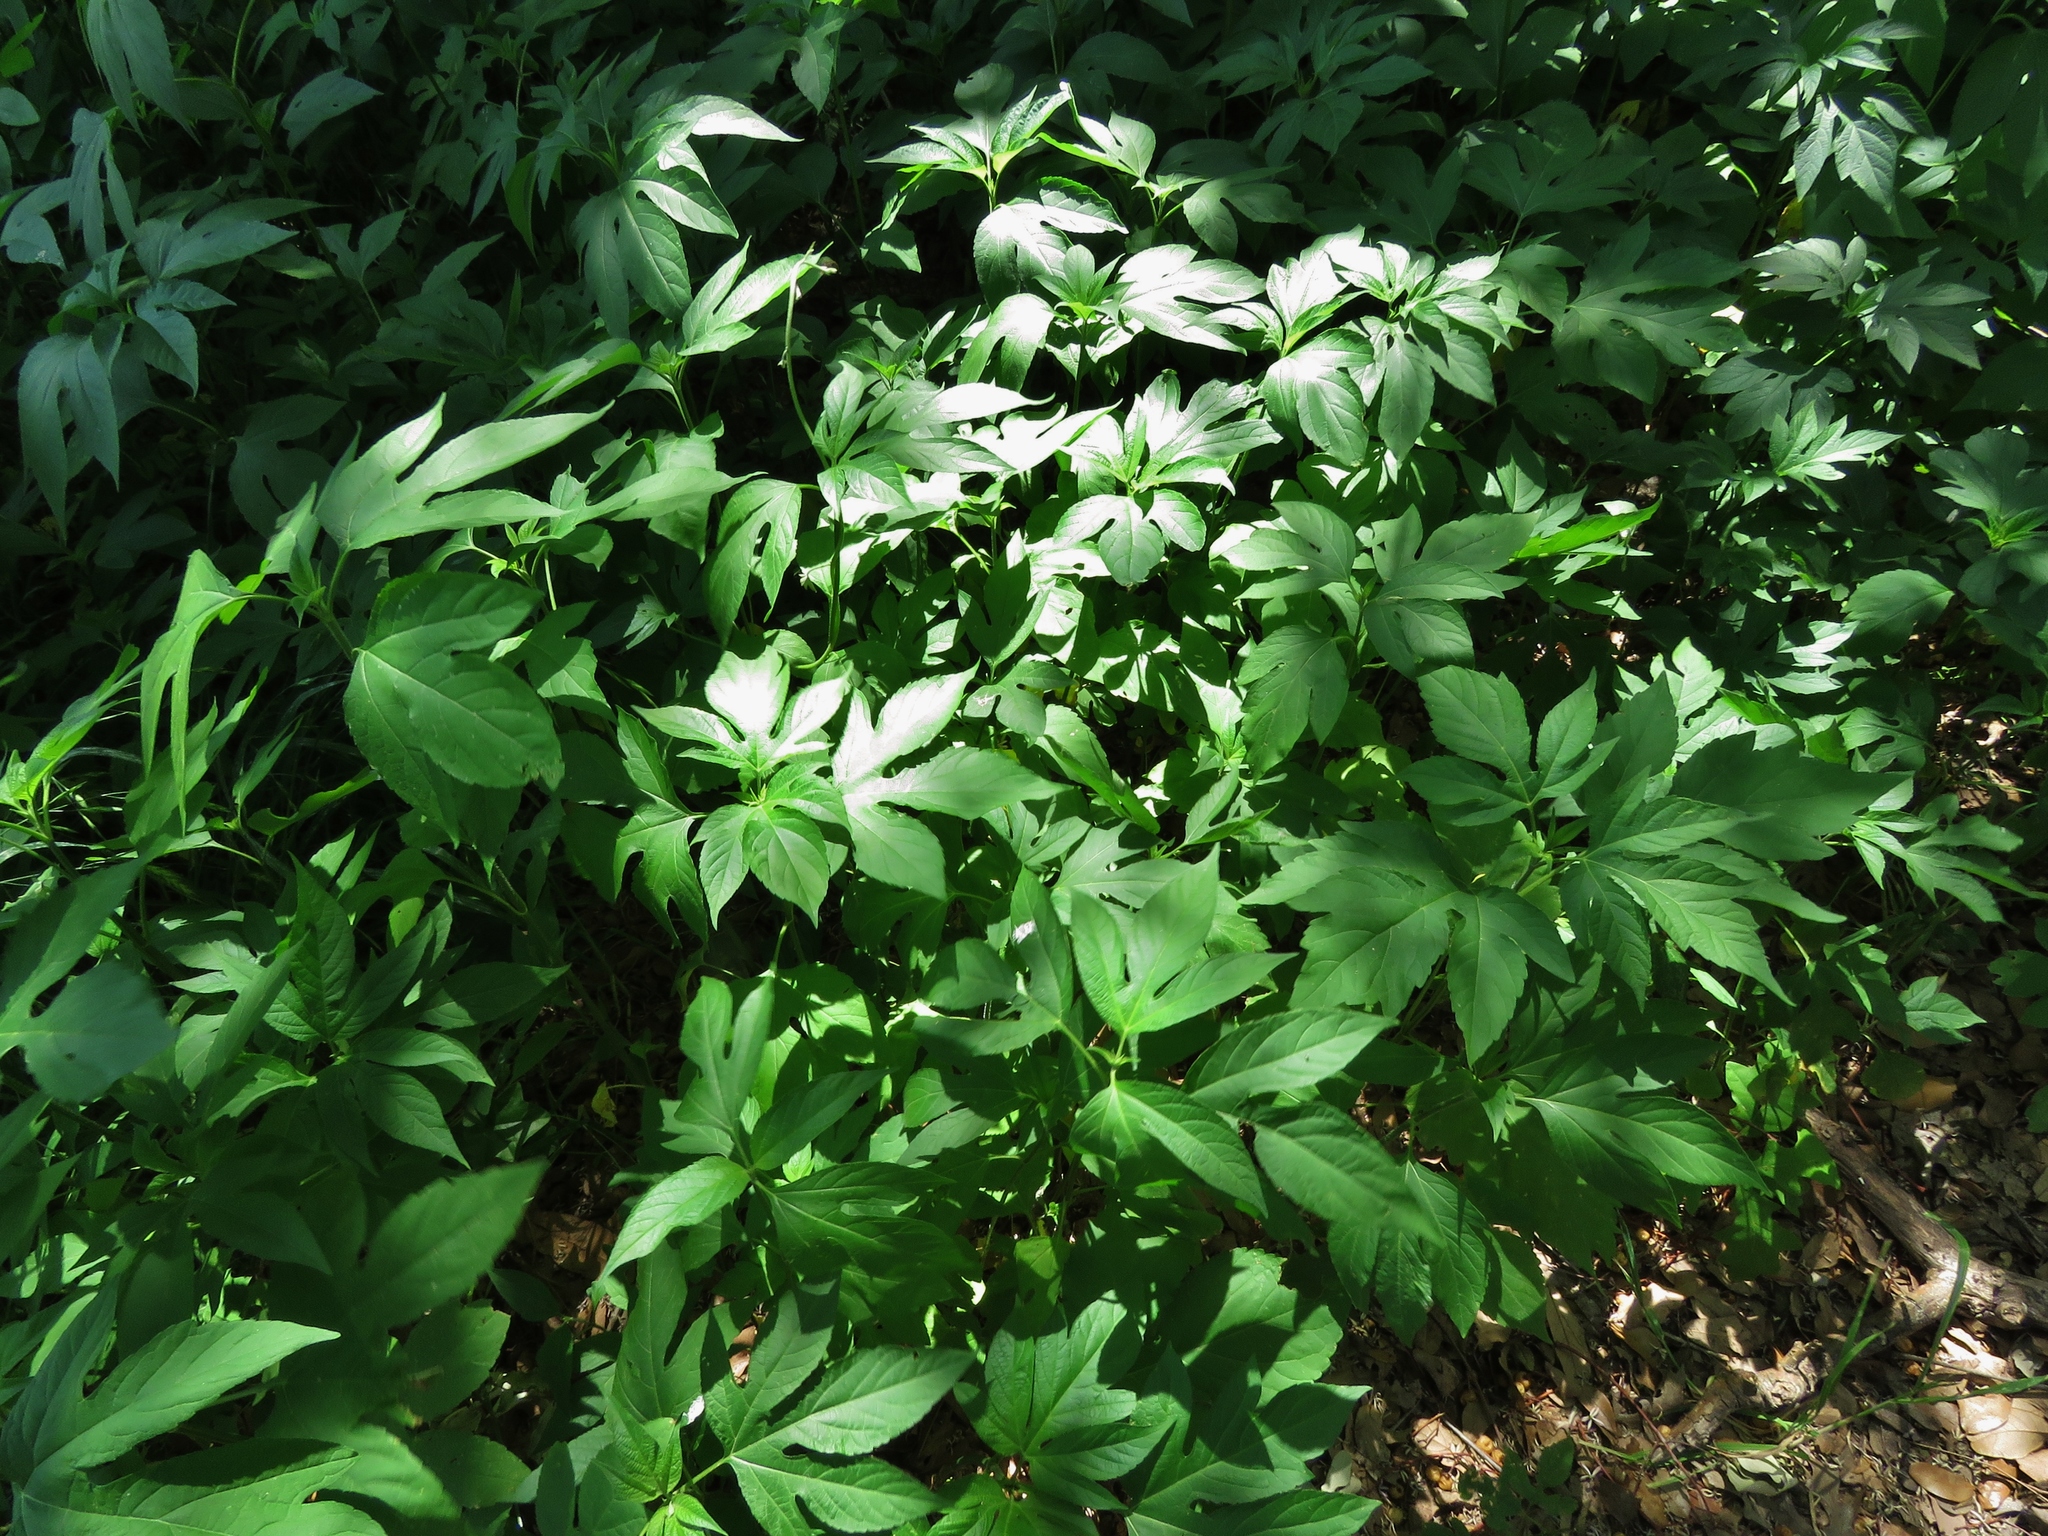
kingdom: Plantae
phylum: Tracheophyta
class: Magnoliopsida
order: Asterales
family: Asteraceae
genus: Ambrosia
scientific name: Ambrosia trifida
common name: Giant ragweed
